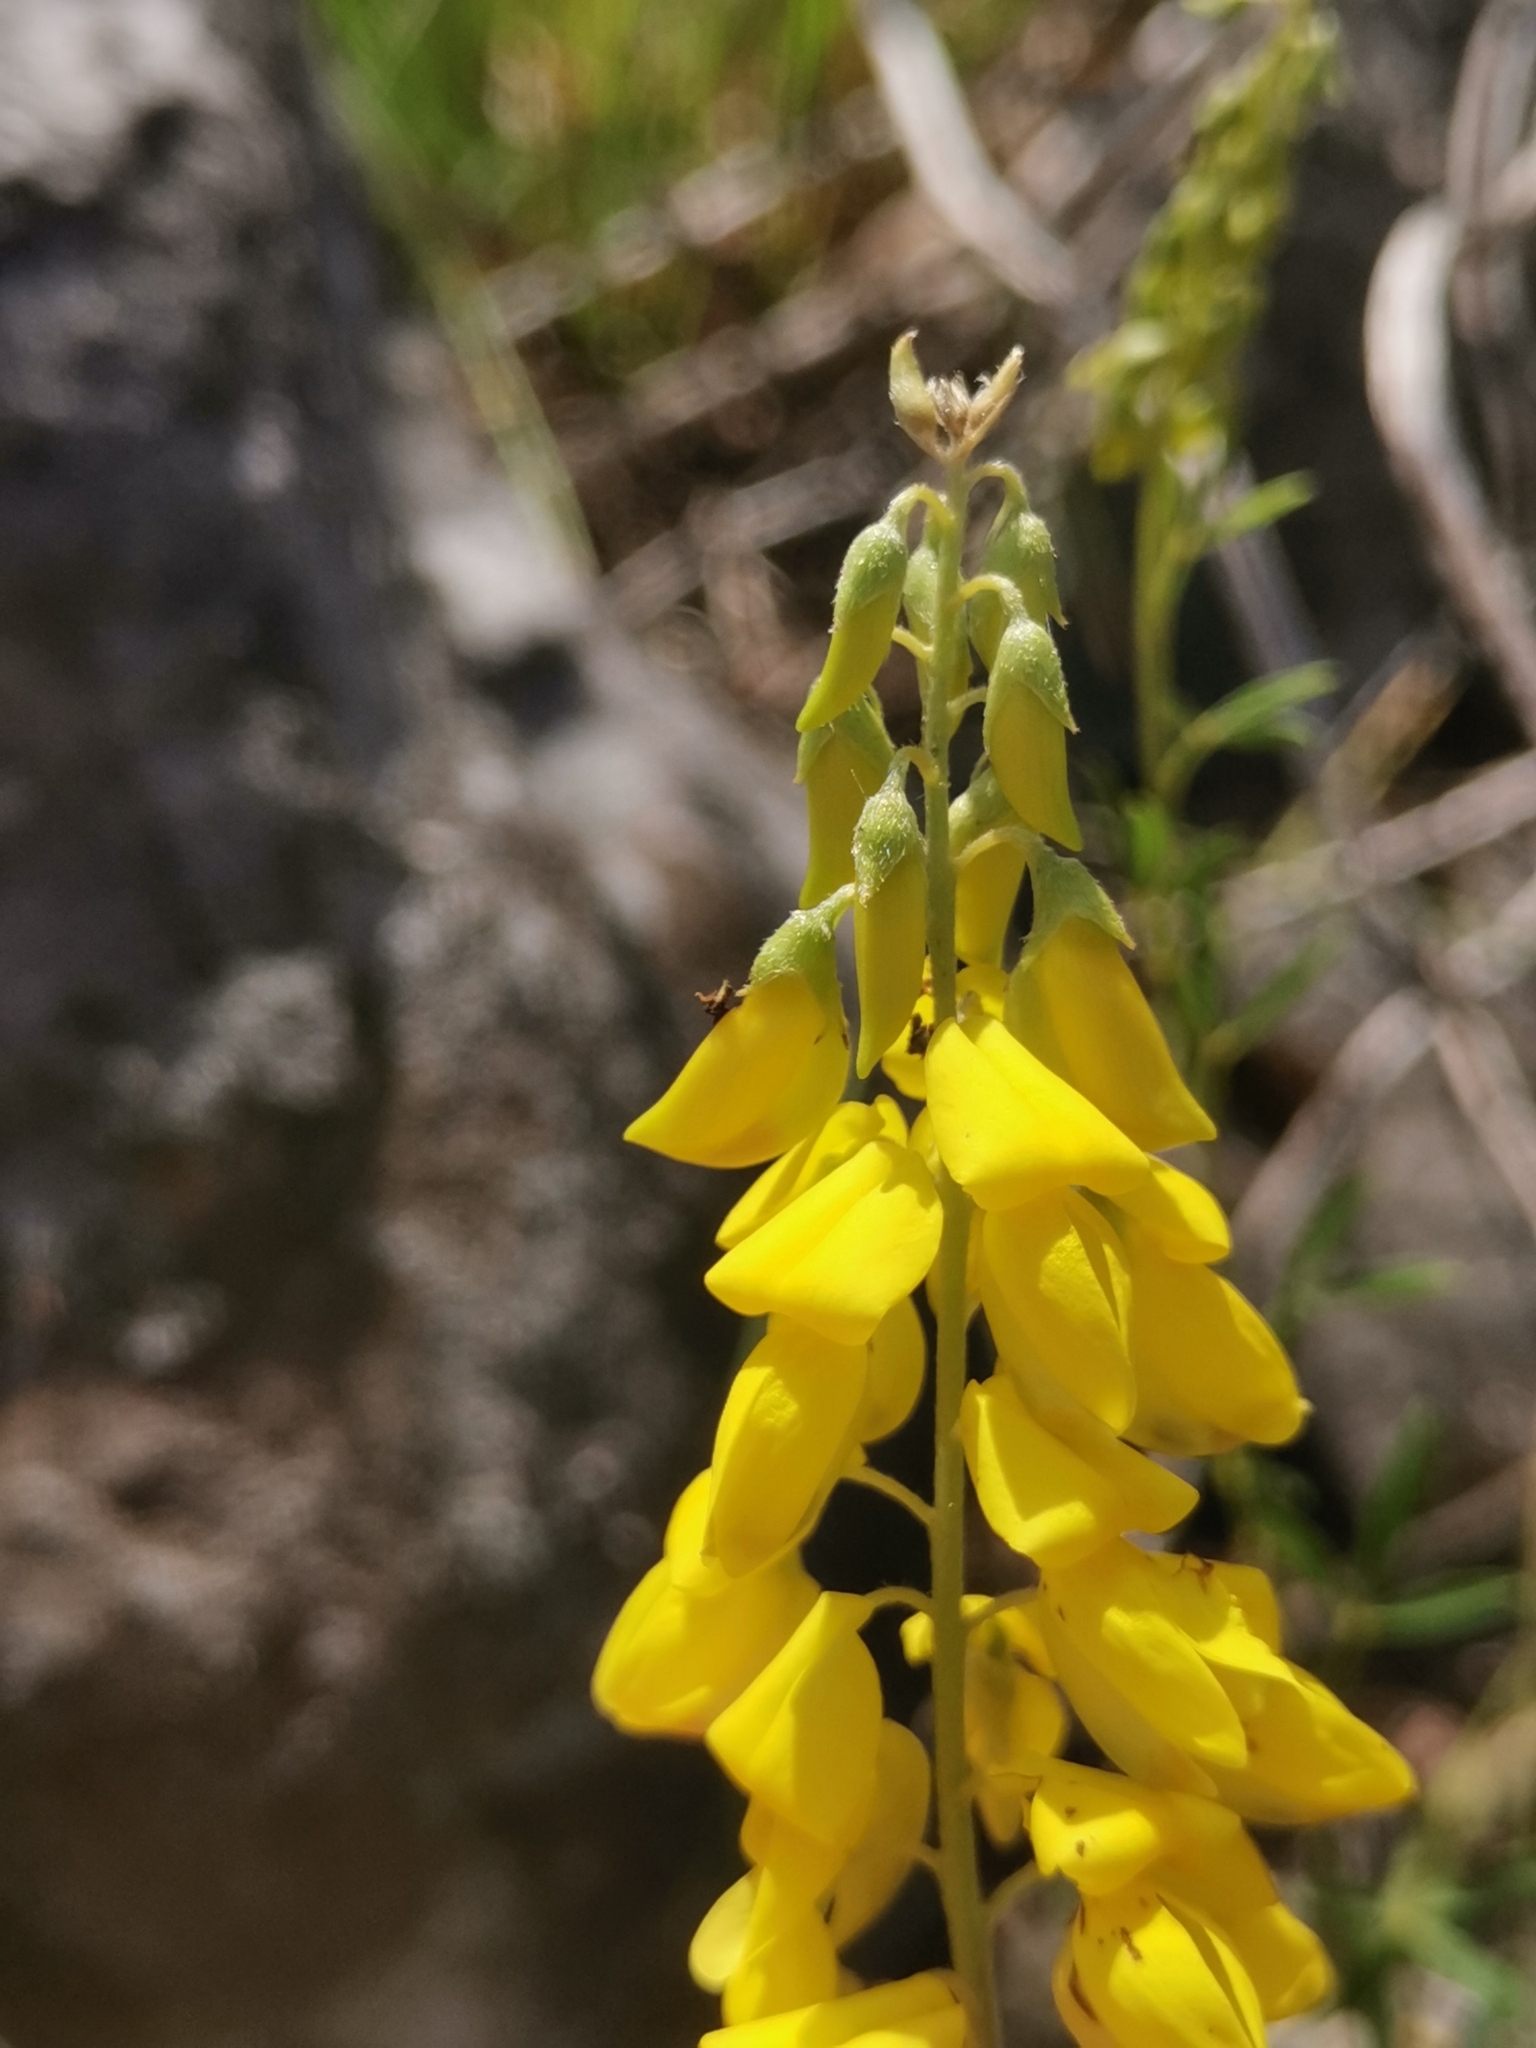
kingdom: Plantae
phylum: Tracheophyta
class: Magnoliopsida
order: Fabales
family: Fabaceae
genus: Cytisus
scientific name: Cytisus nigricans
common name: Black broom
